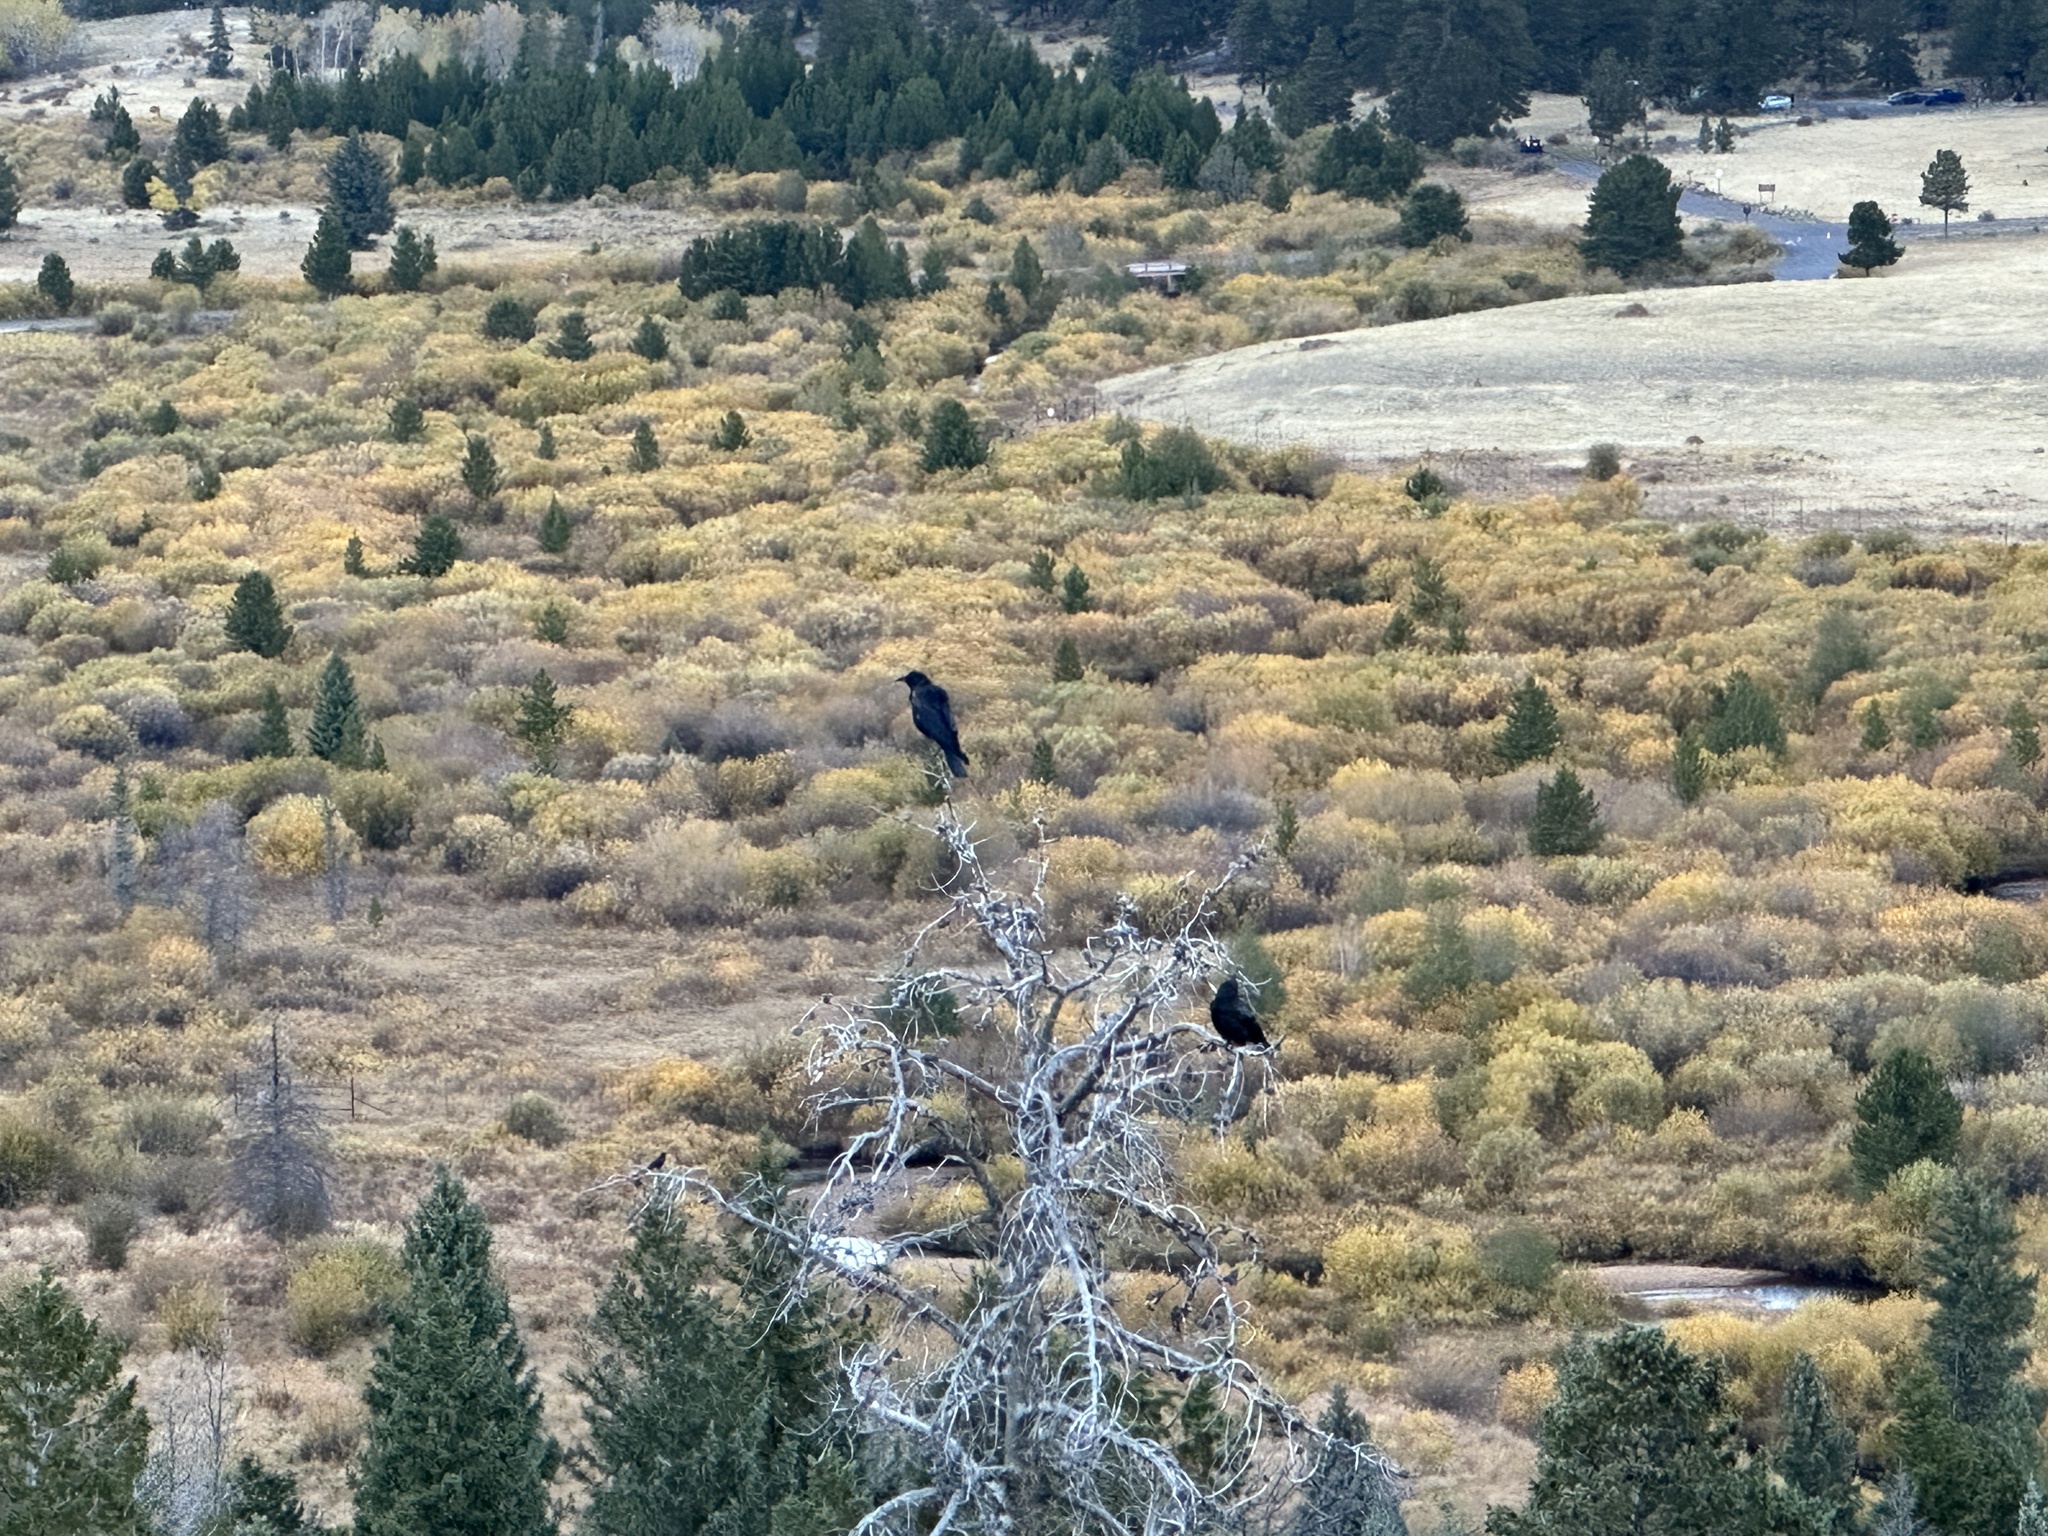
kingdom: Animalia
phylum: Chordata
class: Aves
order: Passeriformes
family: Corvidae
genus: Corvus
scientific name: Corvus brachyrhynchos
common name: American crow
